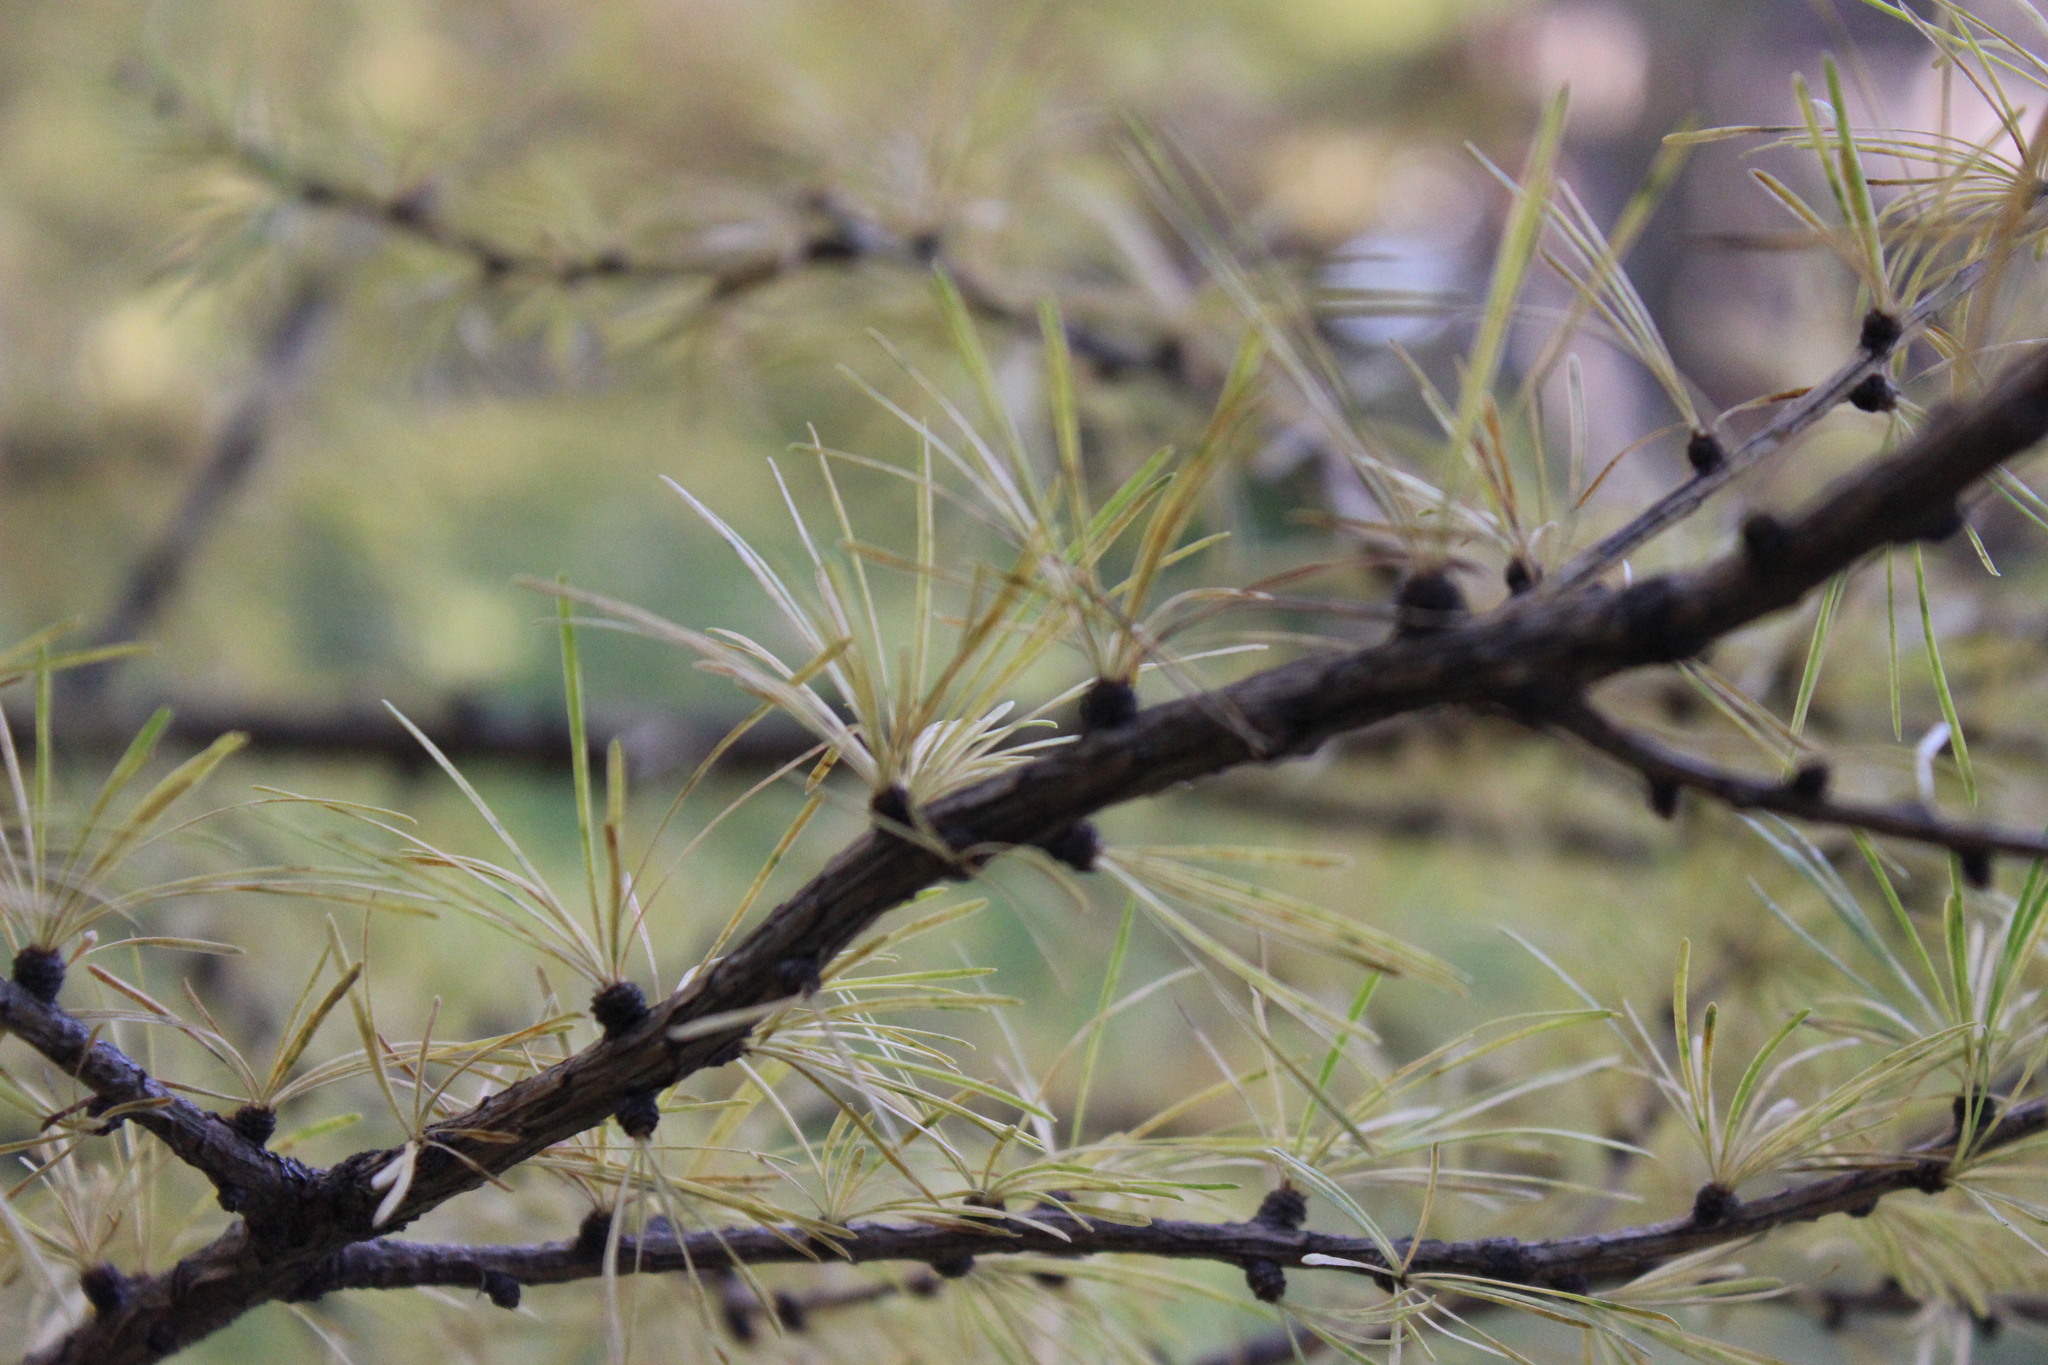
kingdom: Plantae
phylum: Tracheophyta
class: Pinopsida
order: Pinales
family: Pinaceae
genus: Larix
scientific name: Larix sibirica
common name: Siberian larch
